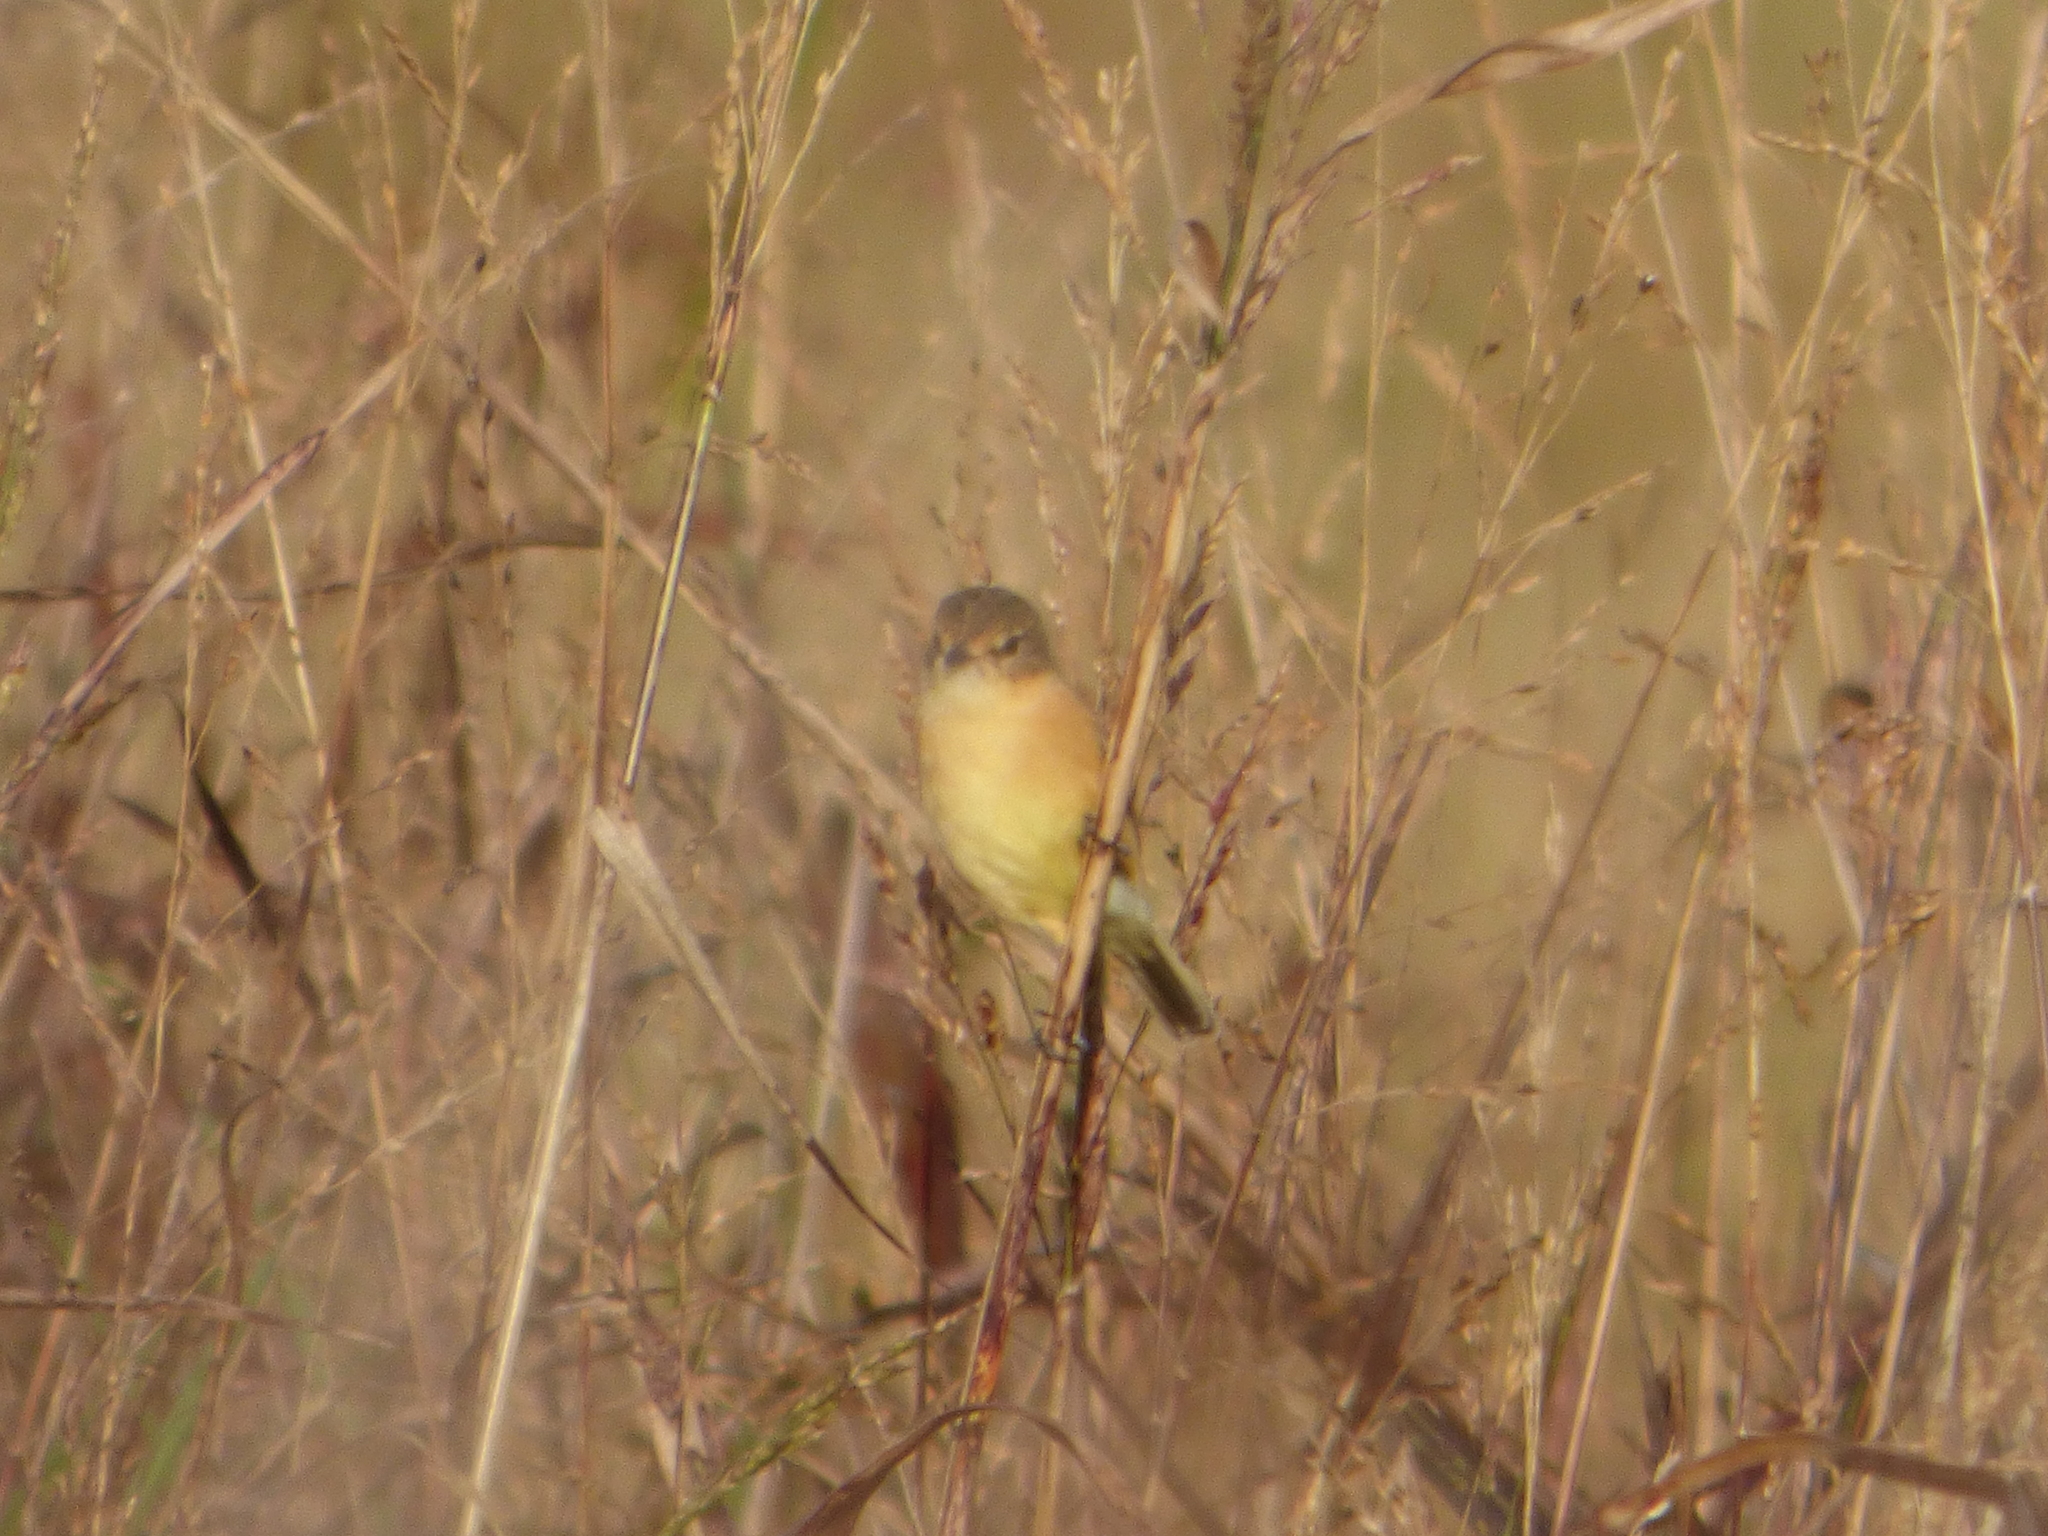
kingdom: Animalia
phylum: Chordata
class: Aves
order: Passeriformes
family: Tyrannidae
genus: Polystictus
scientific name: Polystictus pectoralis
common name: Bearded tachuri
